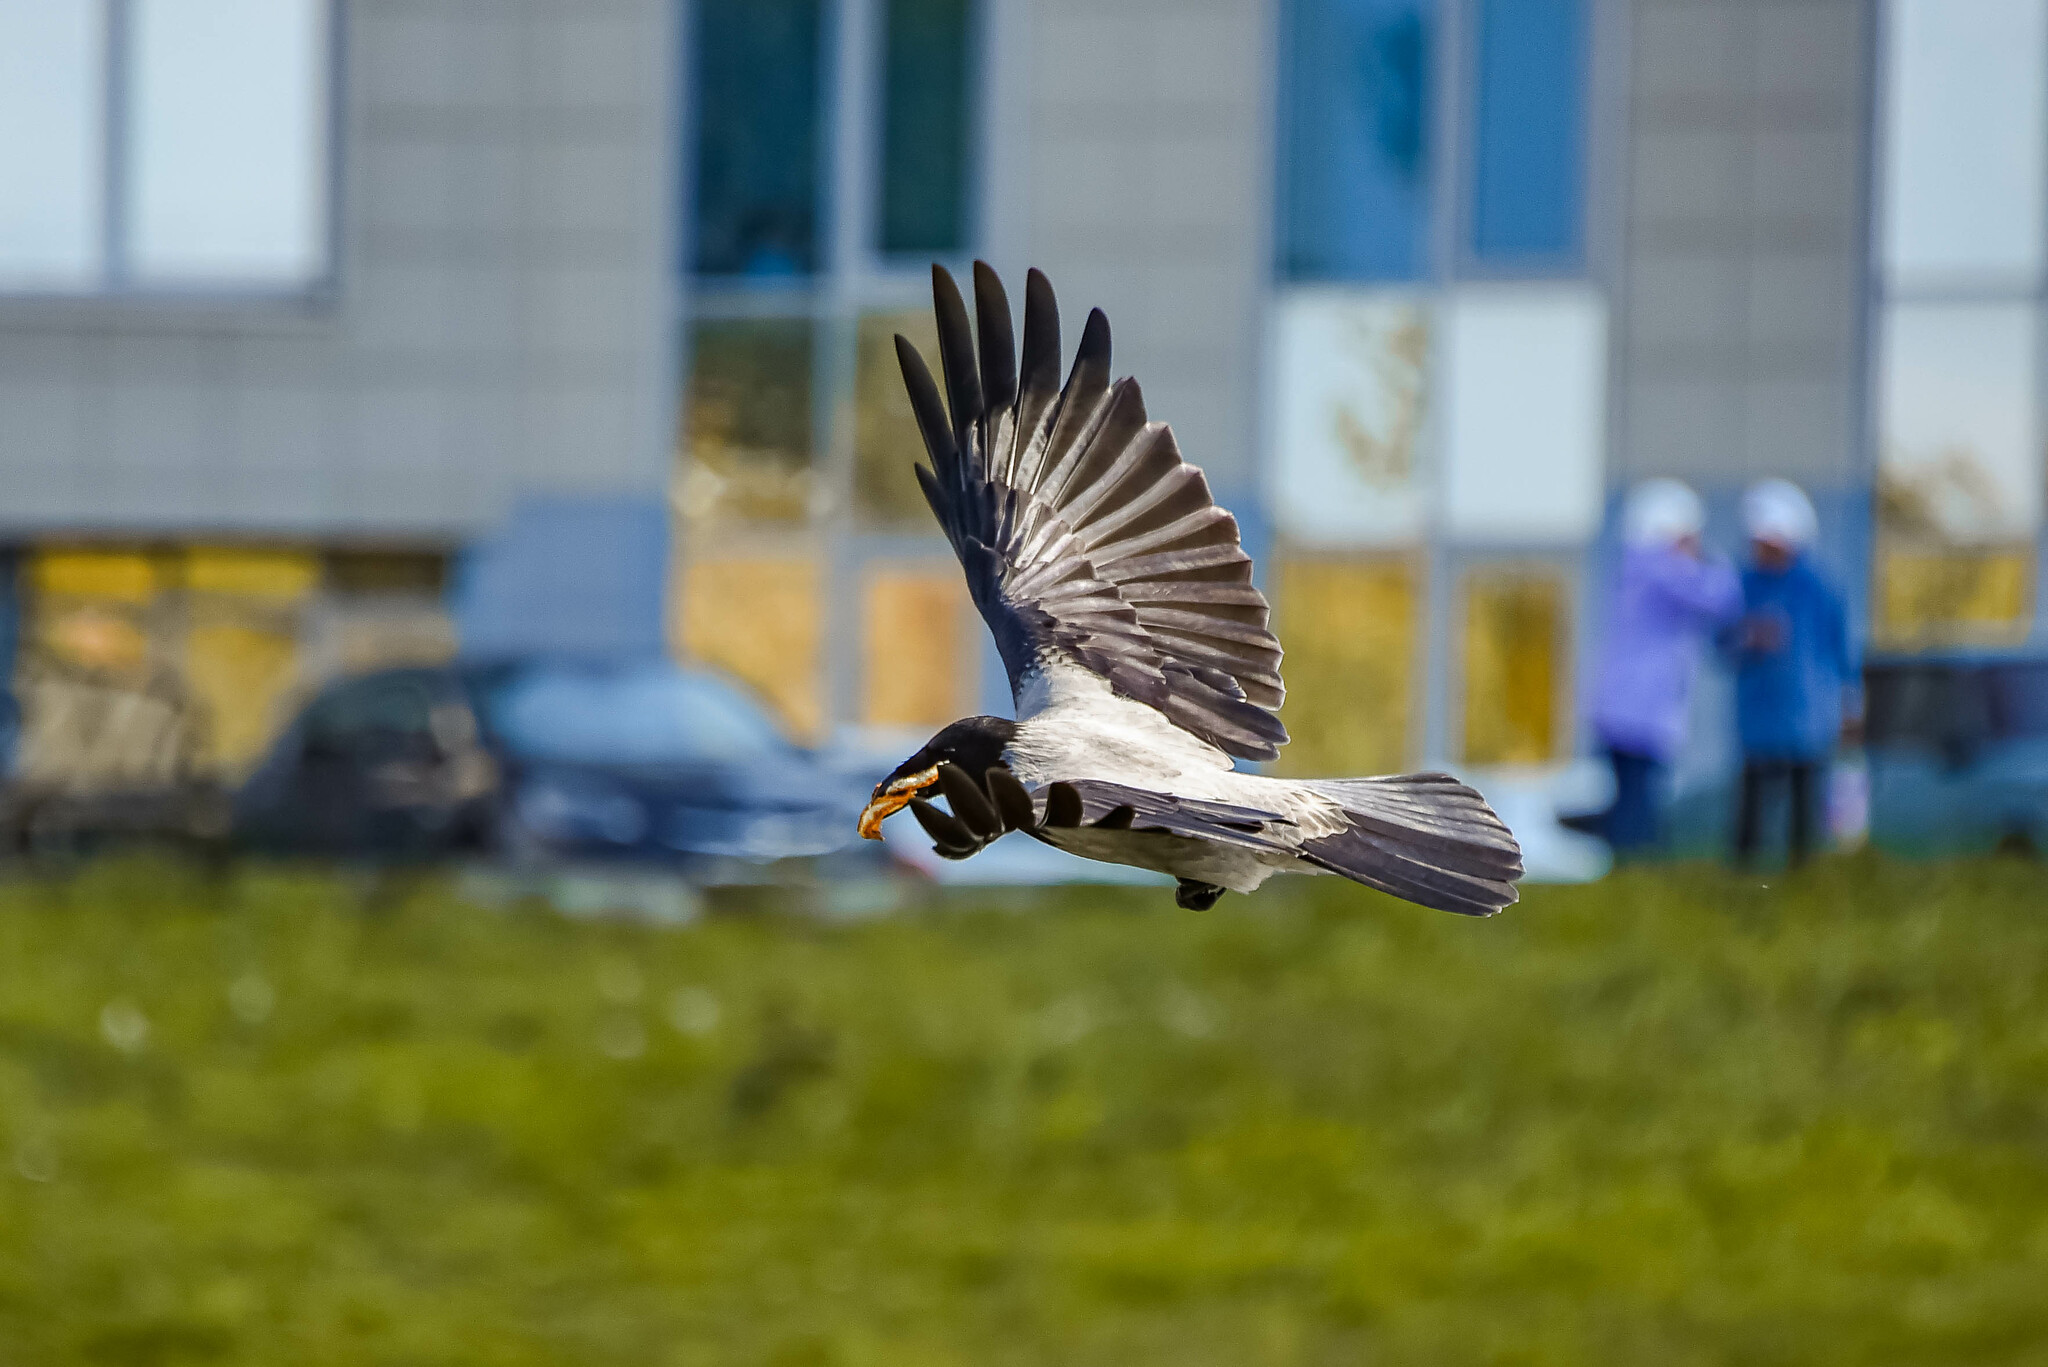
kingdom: Animalia
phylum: Chordata
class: Aves
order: Passeriformes
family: Corvidae
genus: Corvus
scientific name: Corvus cornix
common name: Hooded crow
